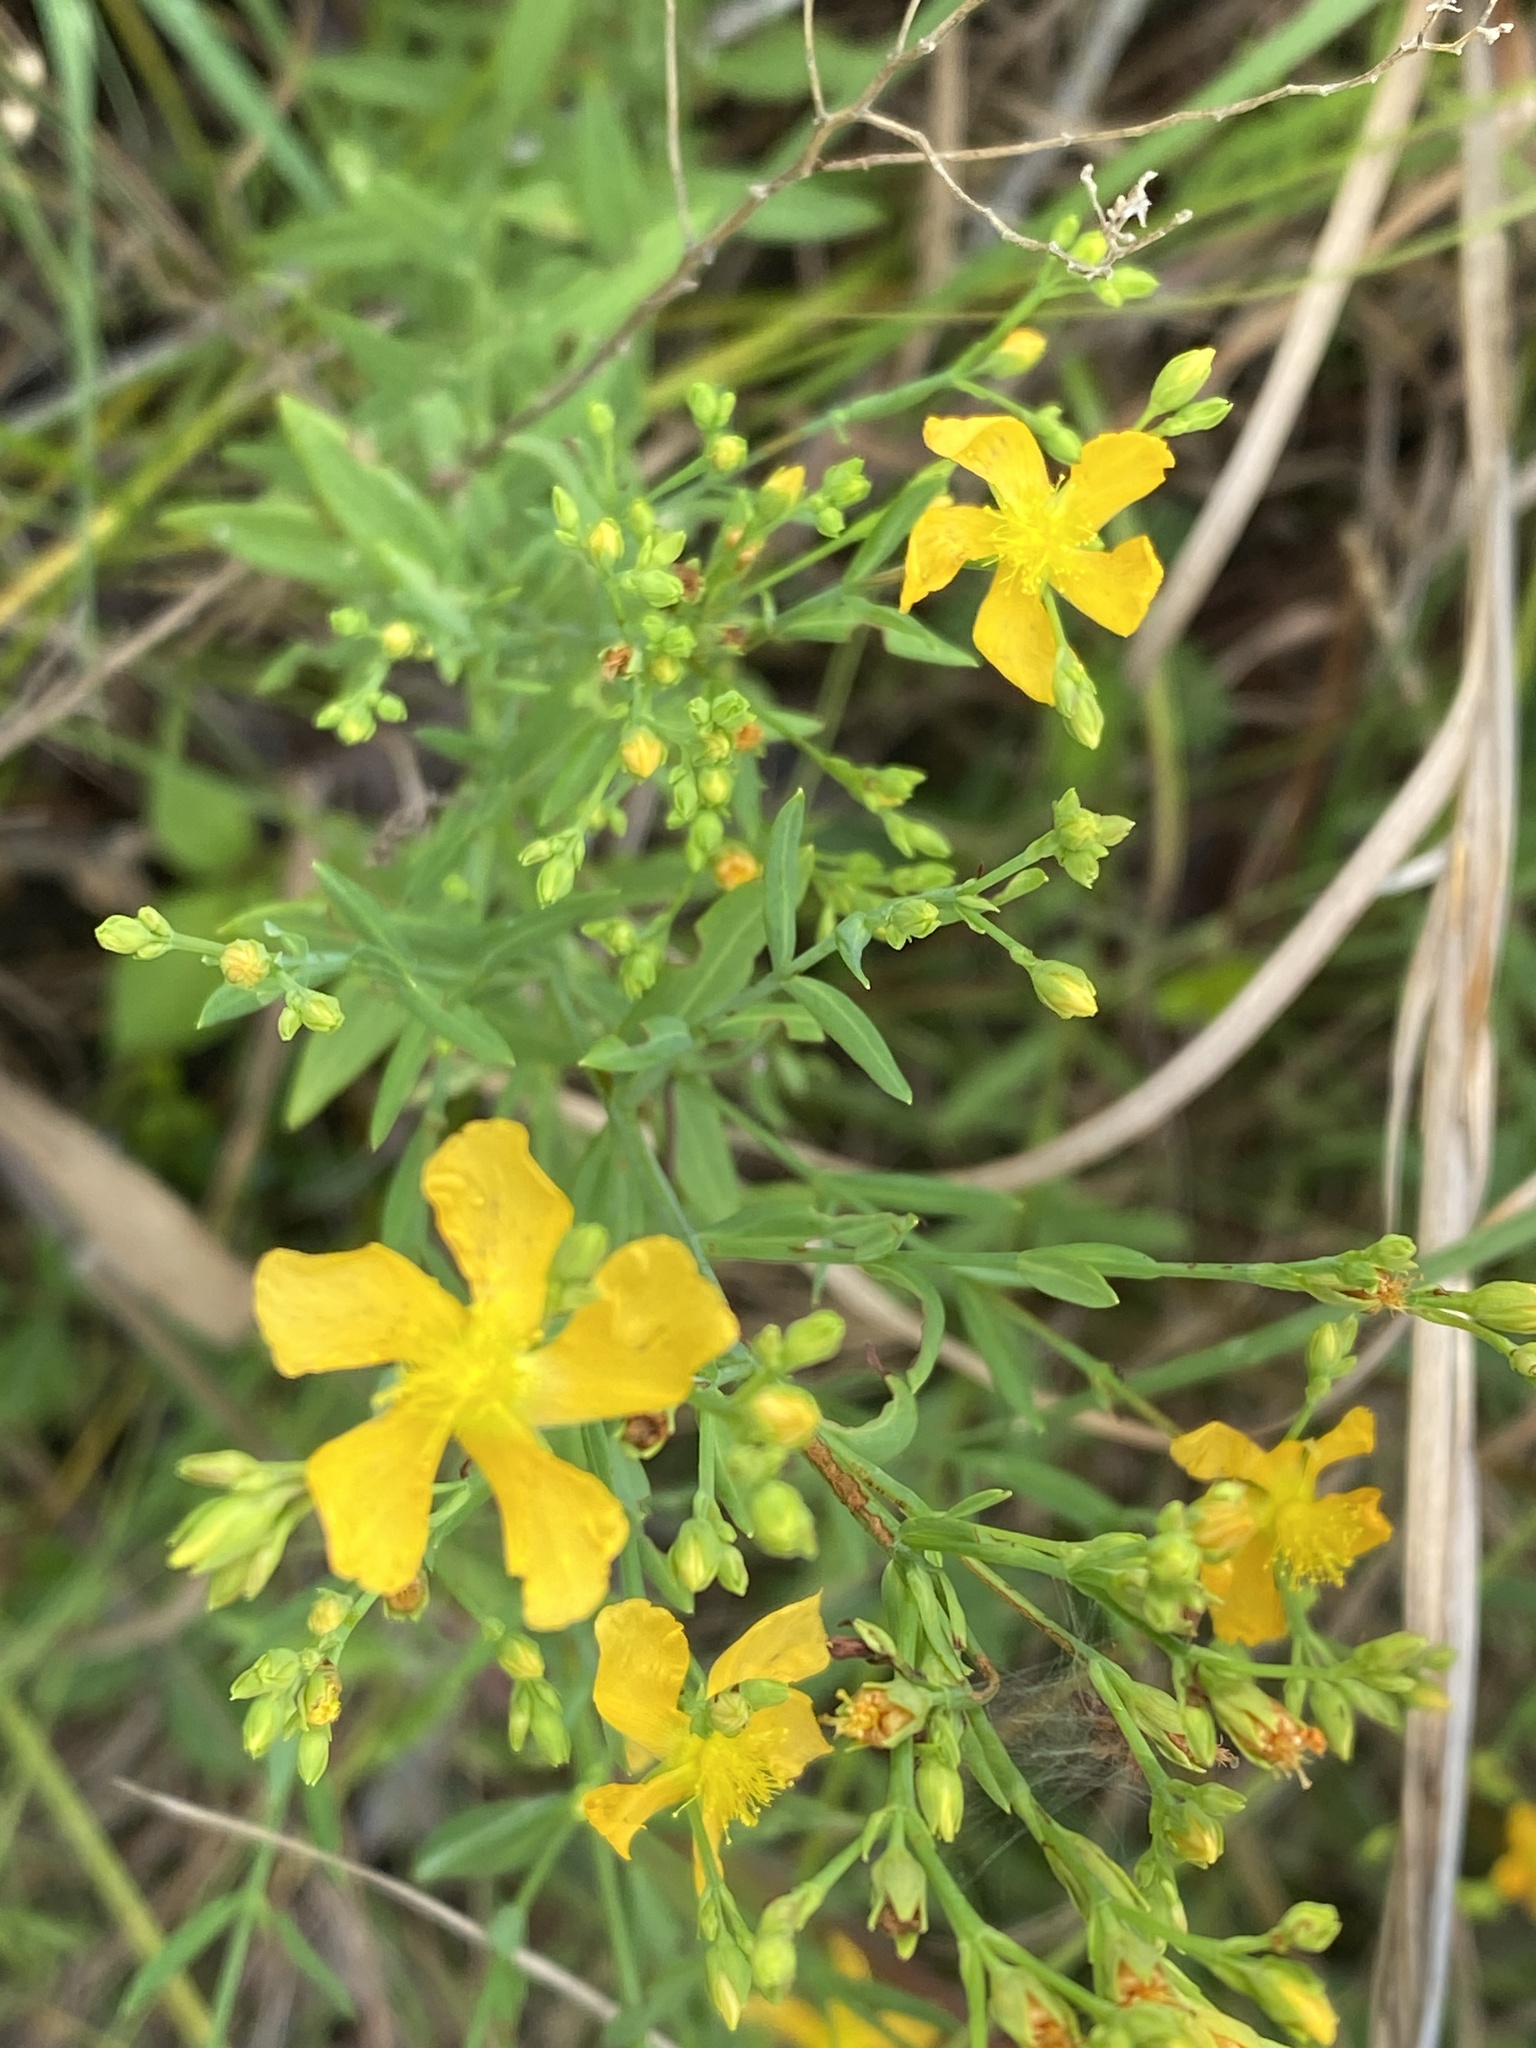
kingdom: Plantae
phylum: Tracheophyta
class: Magnoliopsida
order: Malpighiales
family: Hypericaceae
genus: Hypericum
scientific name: Hypericum drummondii
